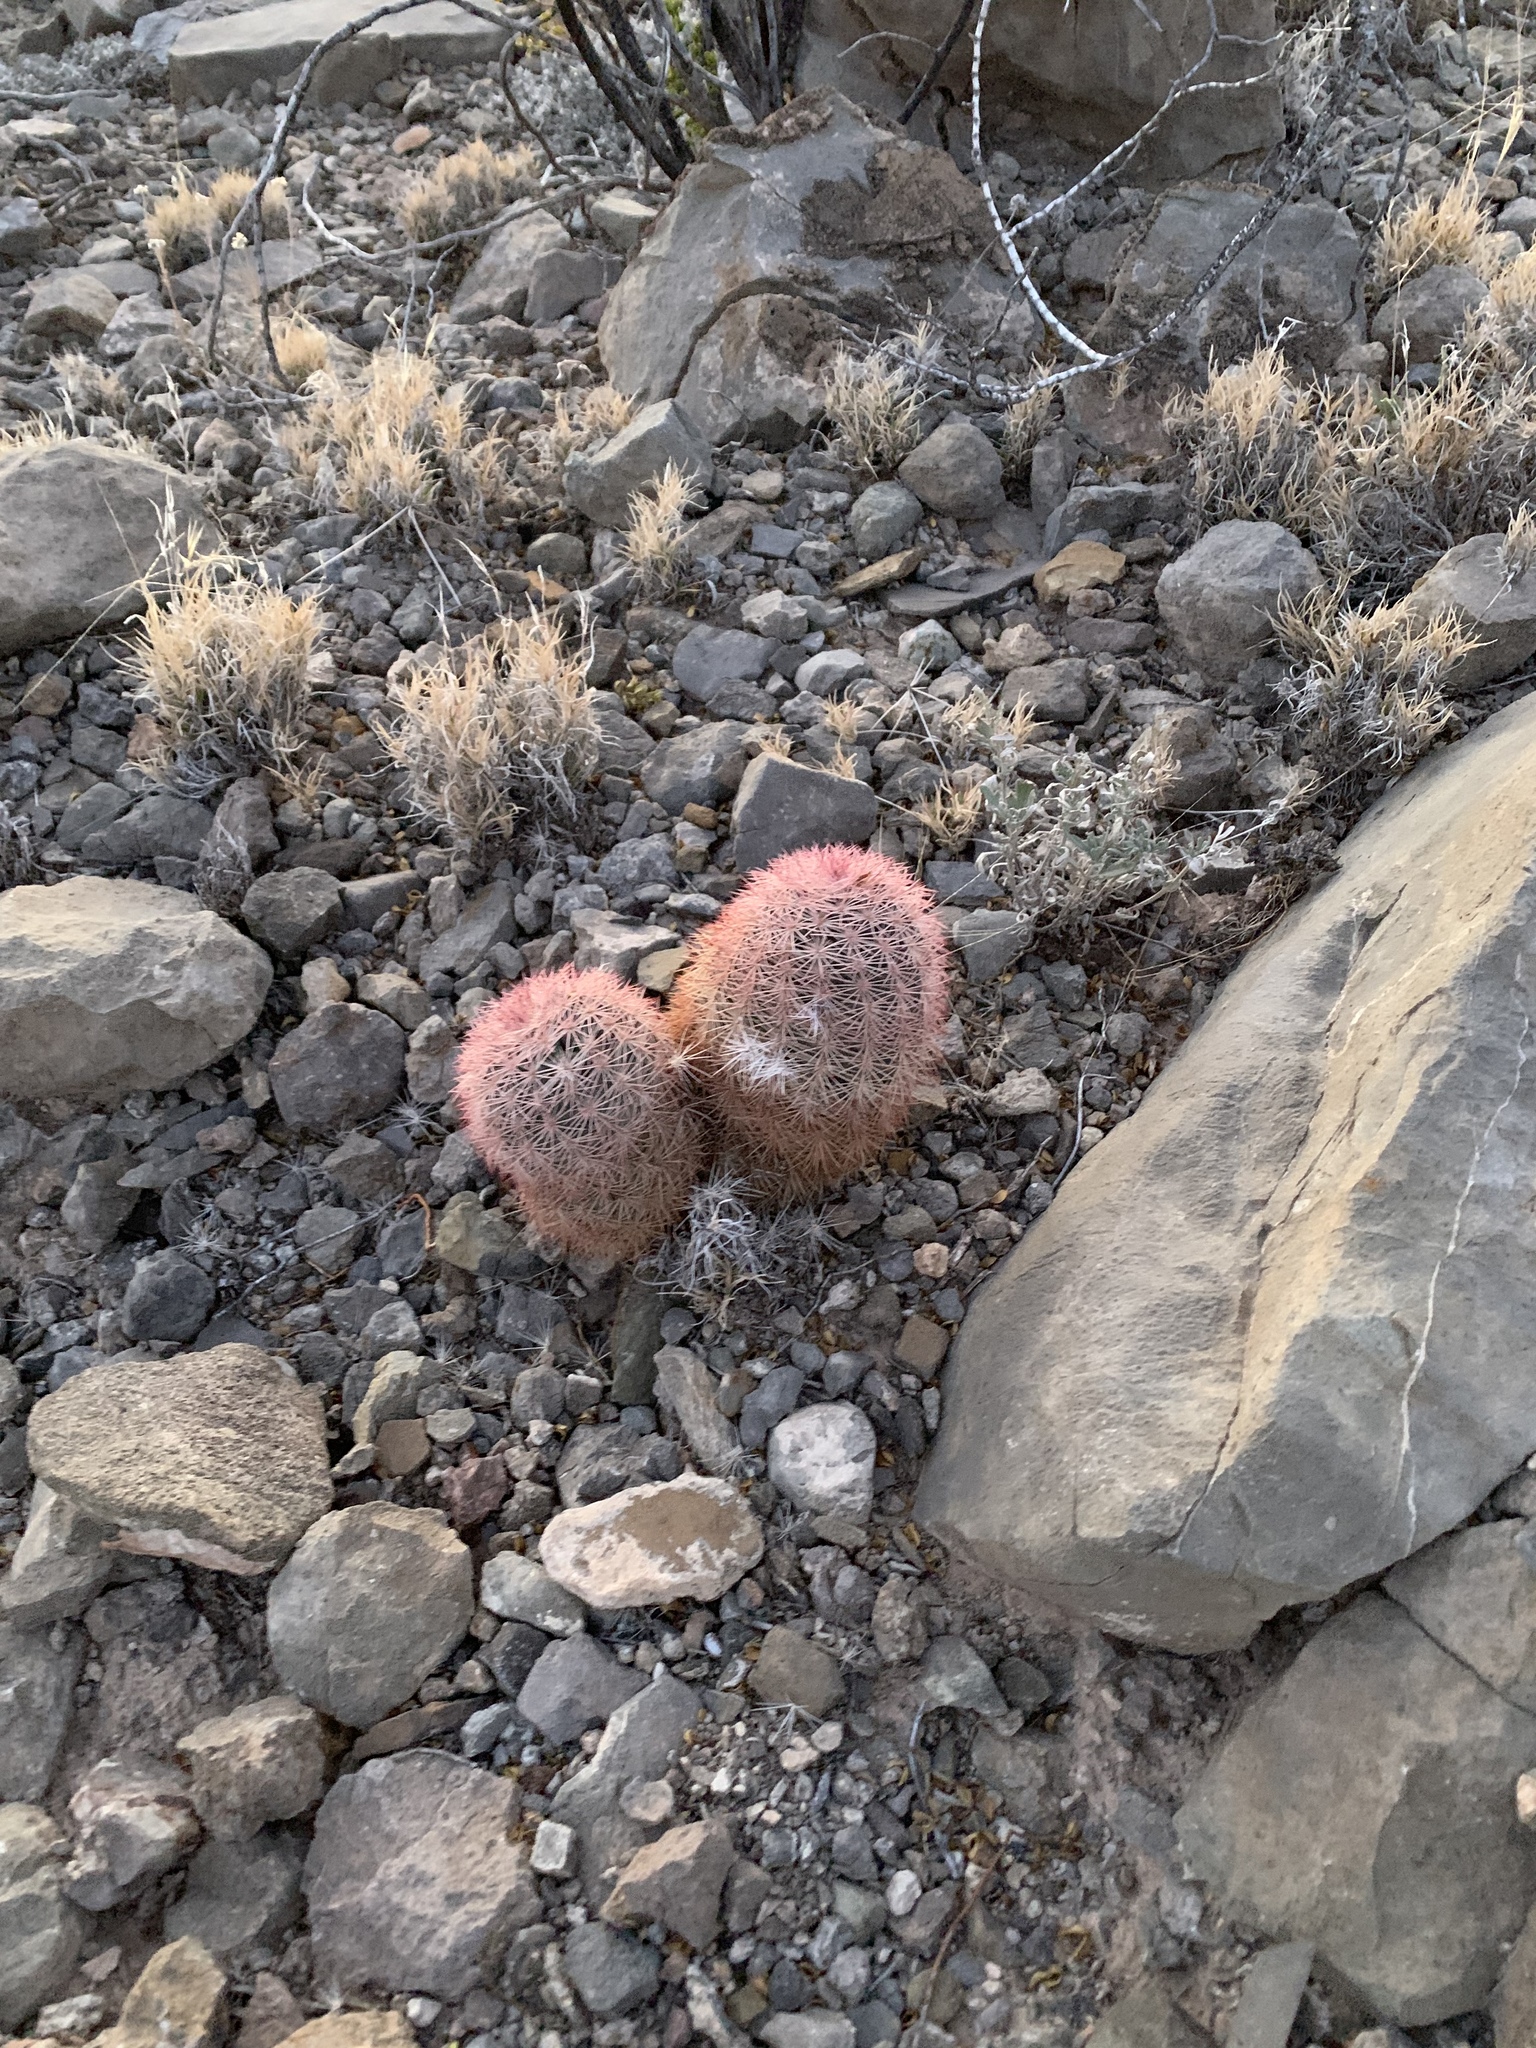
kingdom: Plantae
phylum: Tracheophyta
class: Magnoliopsida
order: Caryophyllales
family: Cactaceae
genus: Echinocereus
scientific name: Echinocereus dasyacanthus
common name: Spiny hedgehog cactus
